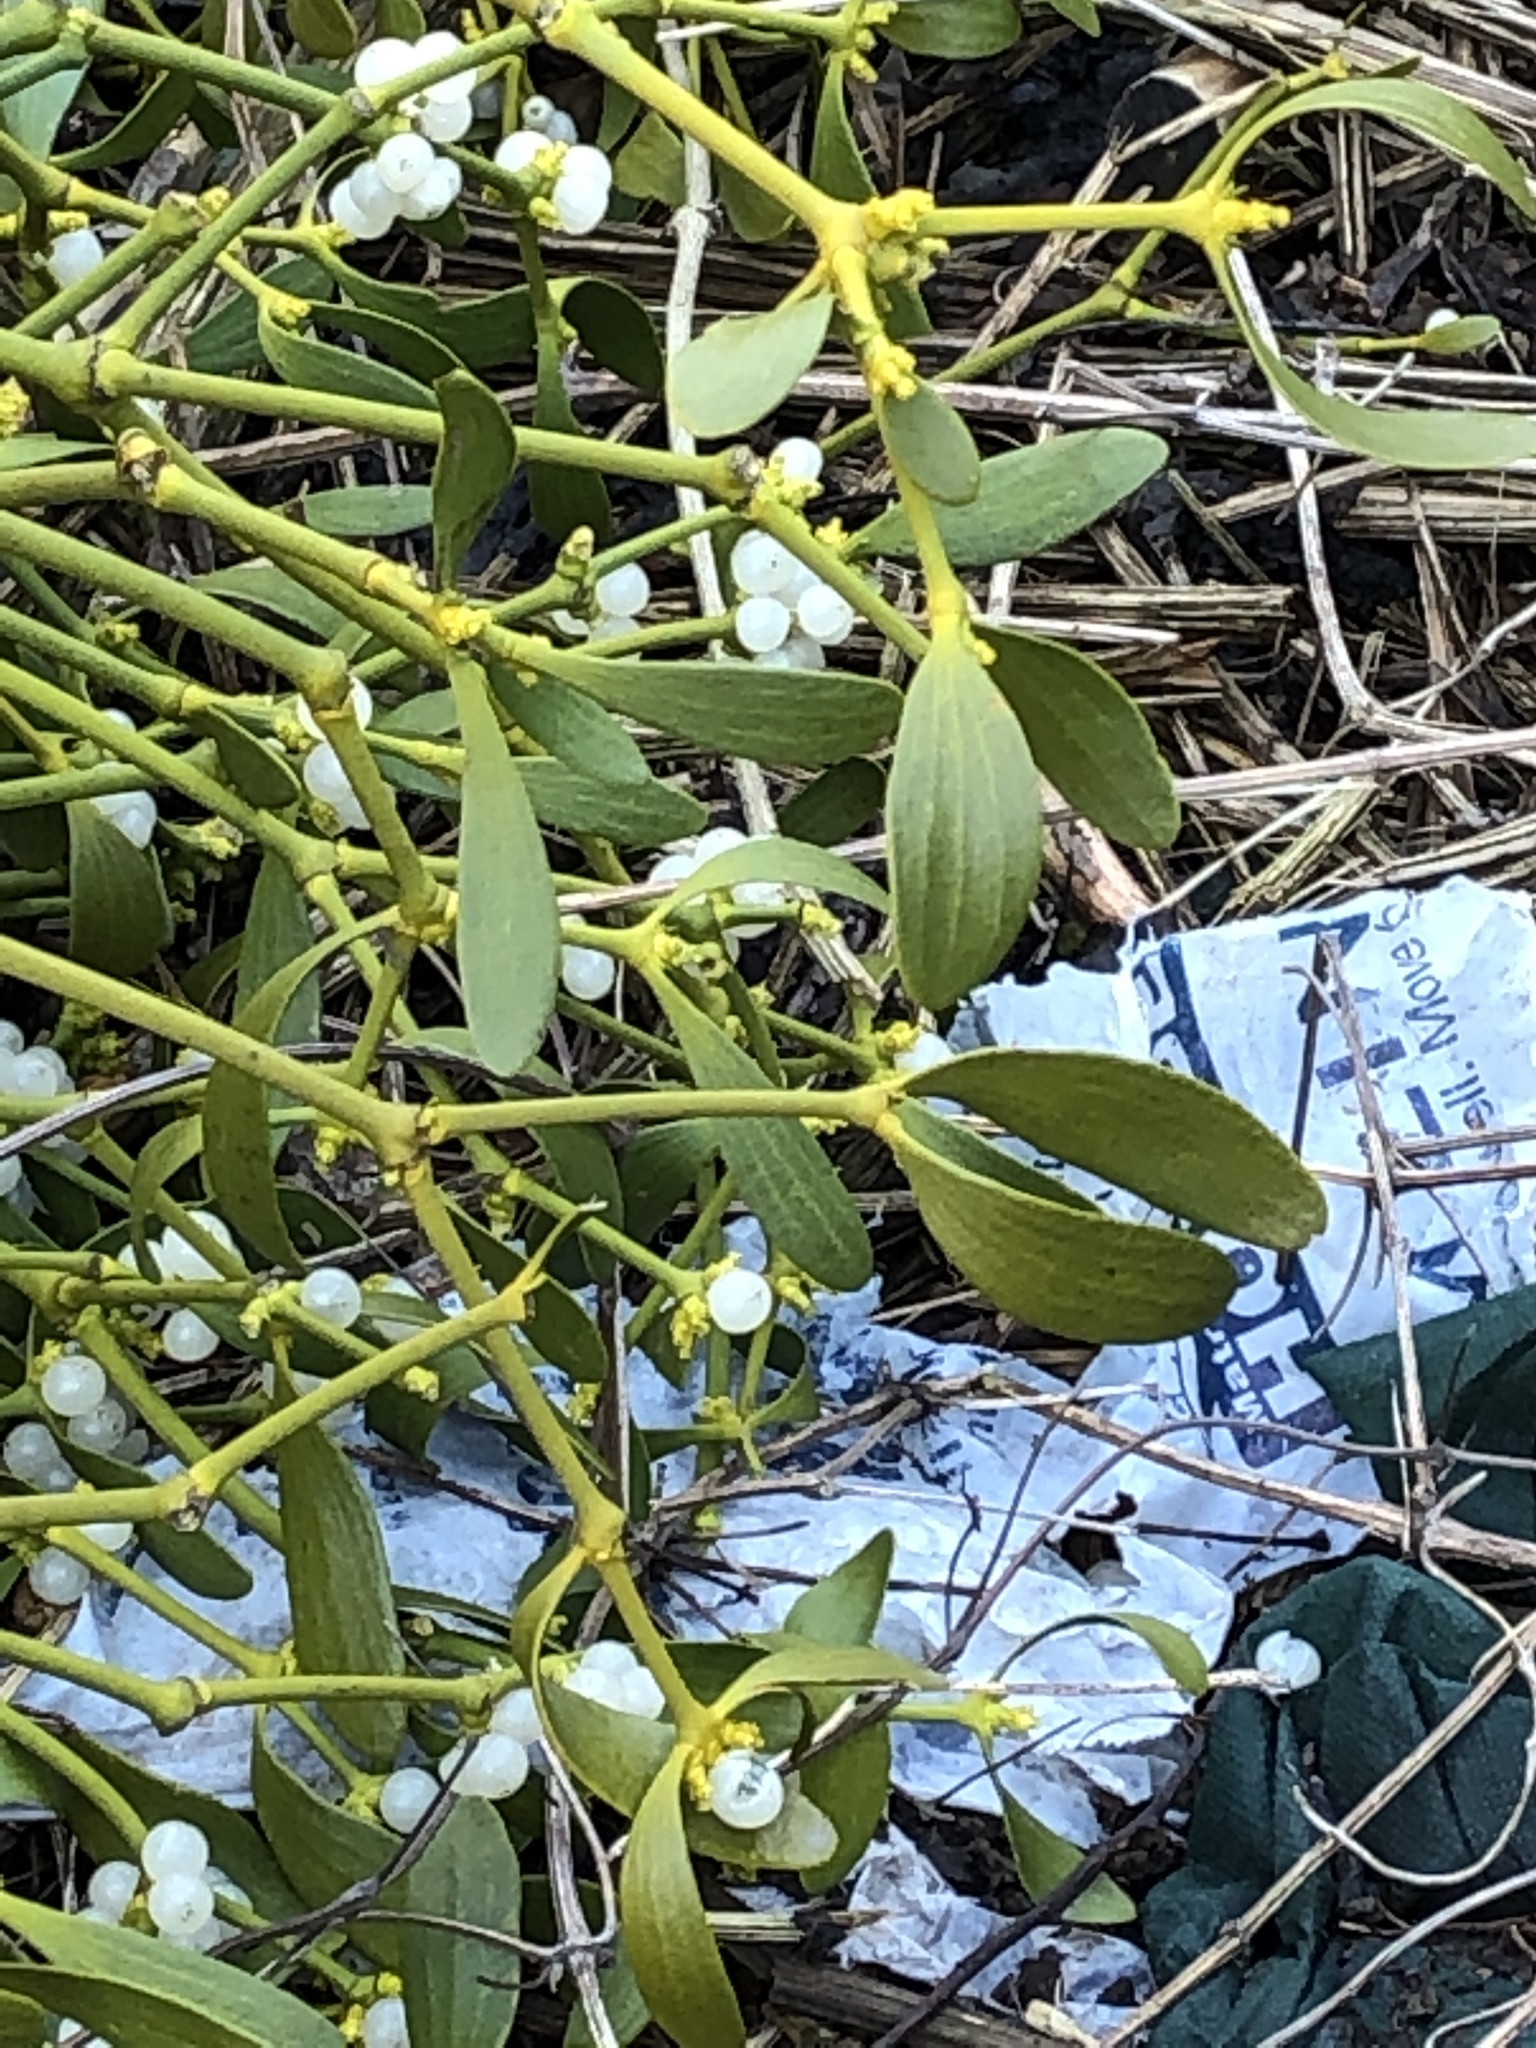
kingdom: Plantae
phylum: Tracheophyta
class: Magnoliopsida
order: Santalales
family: Viscaceae
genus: Viscum
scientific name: Viscum album
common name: Mistletoe
